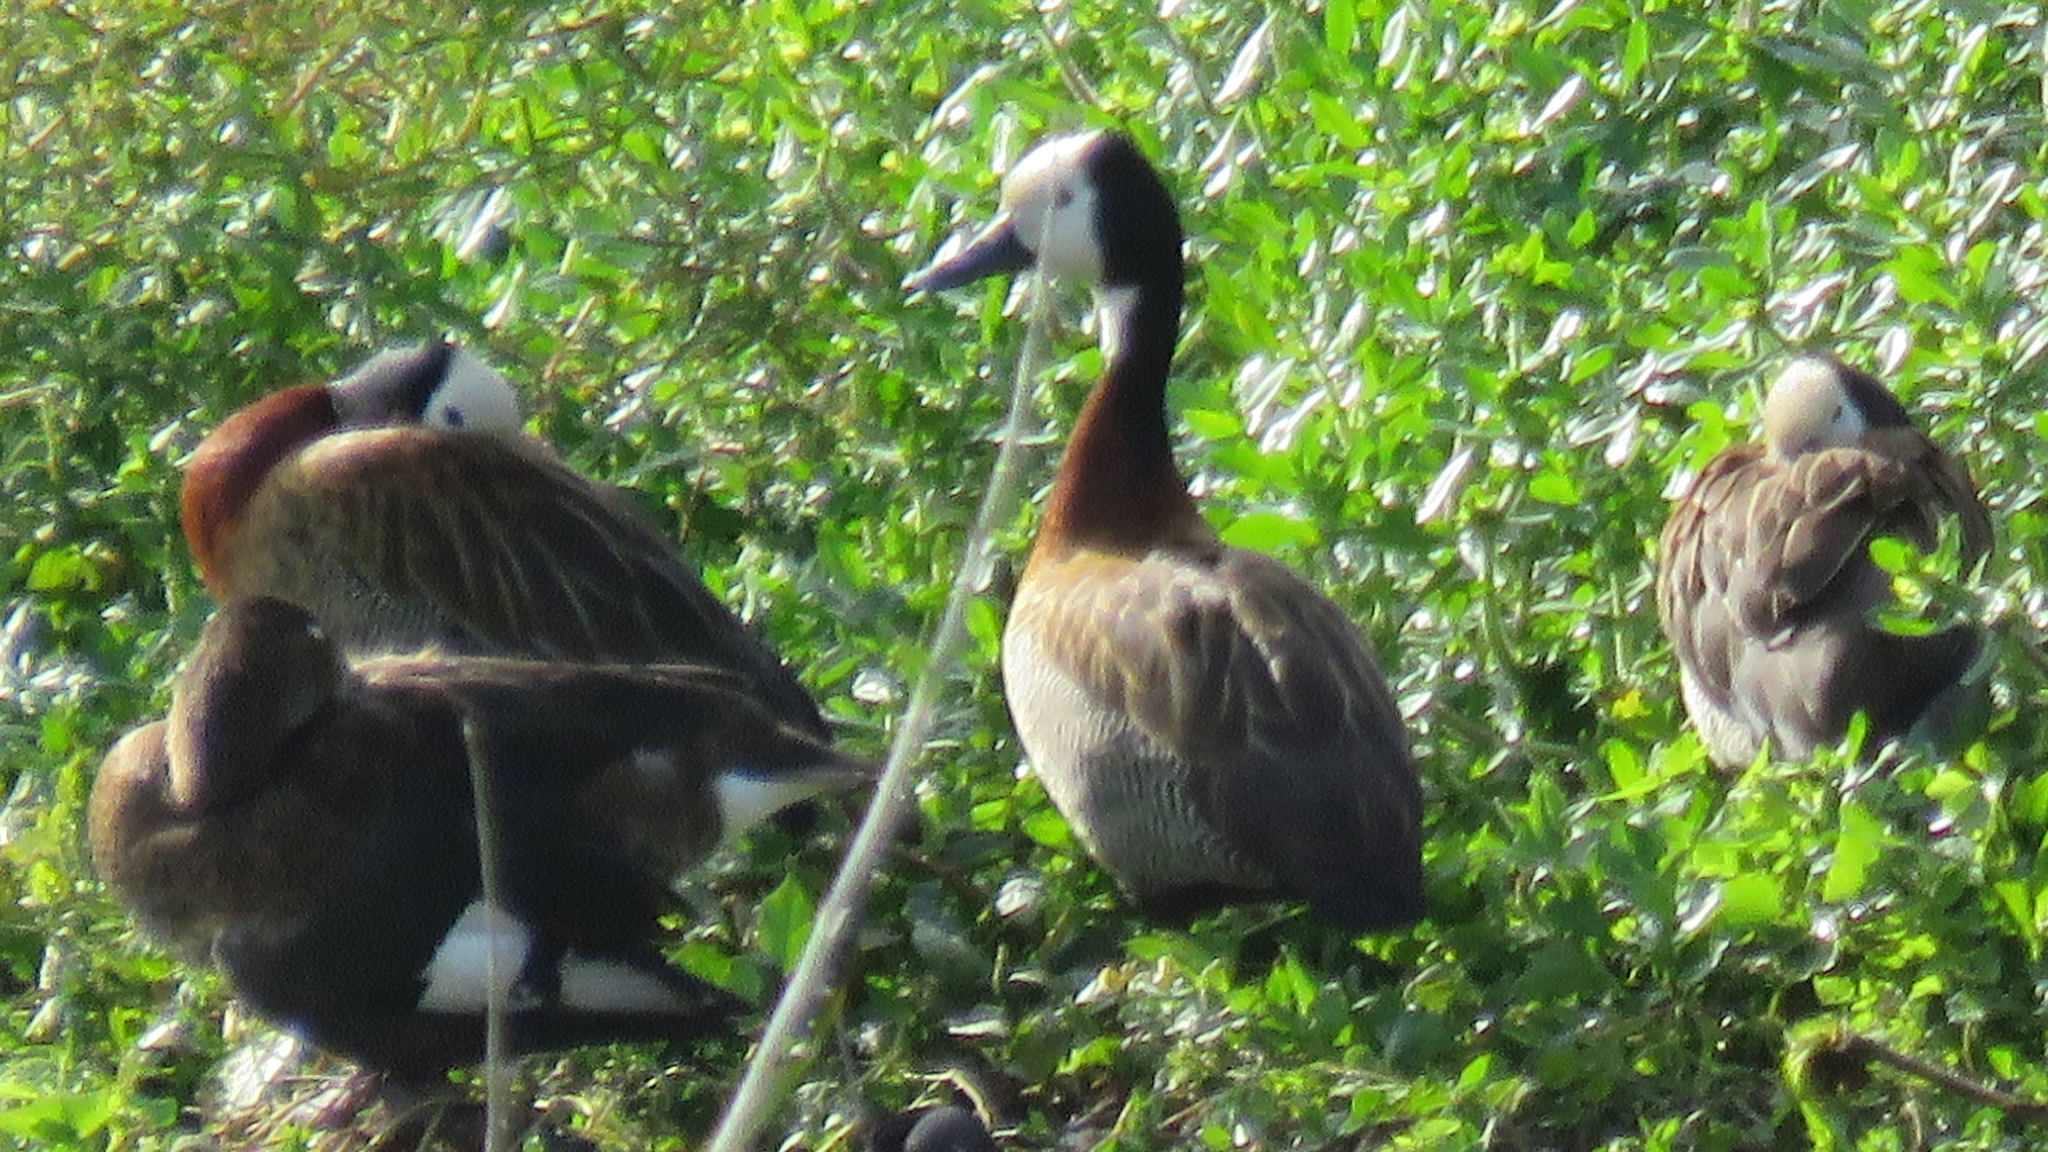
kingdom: Animalia
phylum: Chordata
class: Aves
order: Anseriformes
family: Anatidae
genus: Dendrocygna
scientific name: Dendrocygna viduata
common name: White-faced whistling duck
